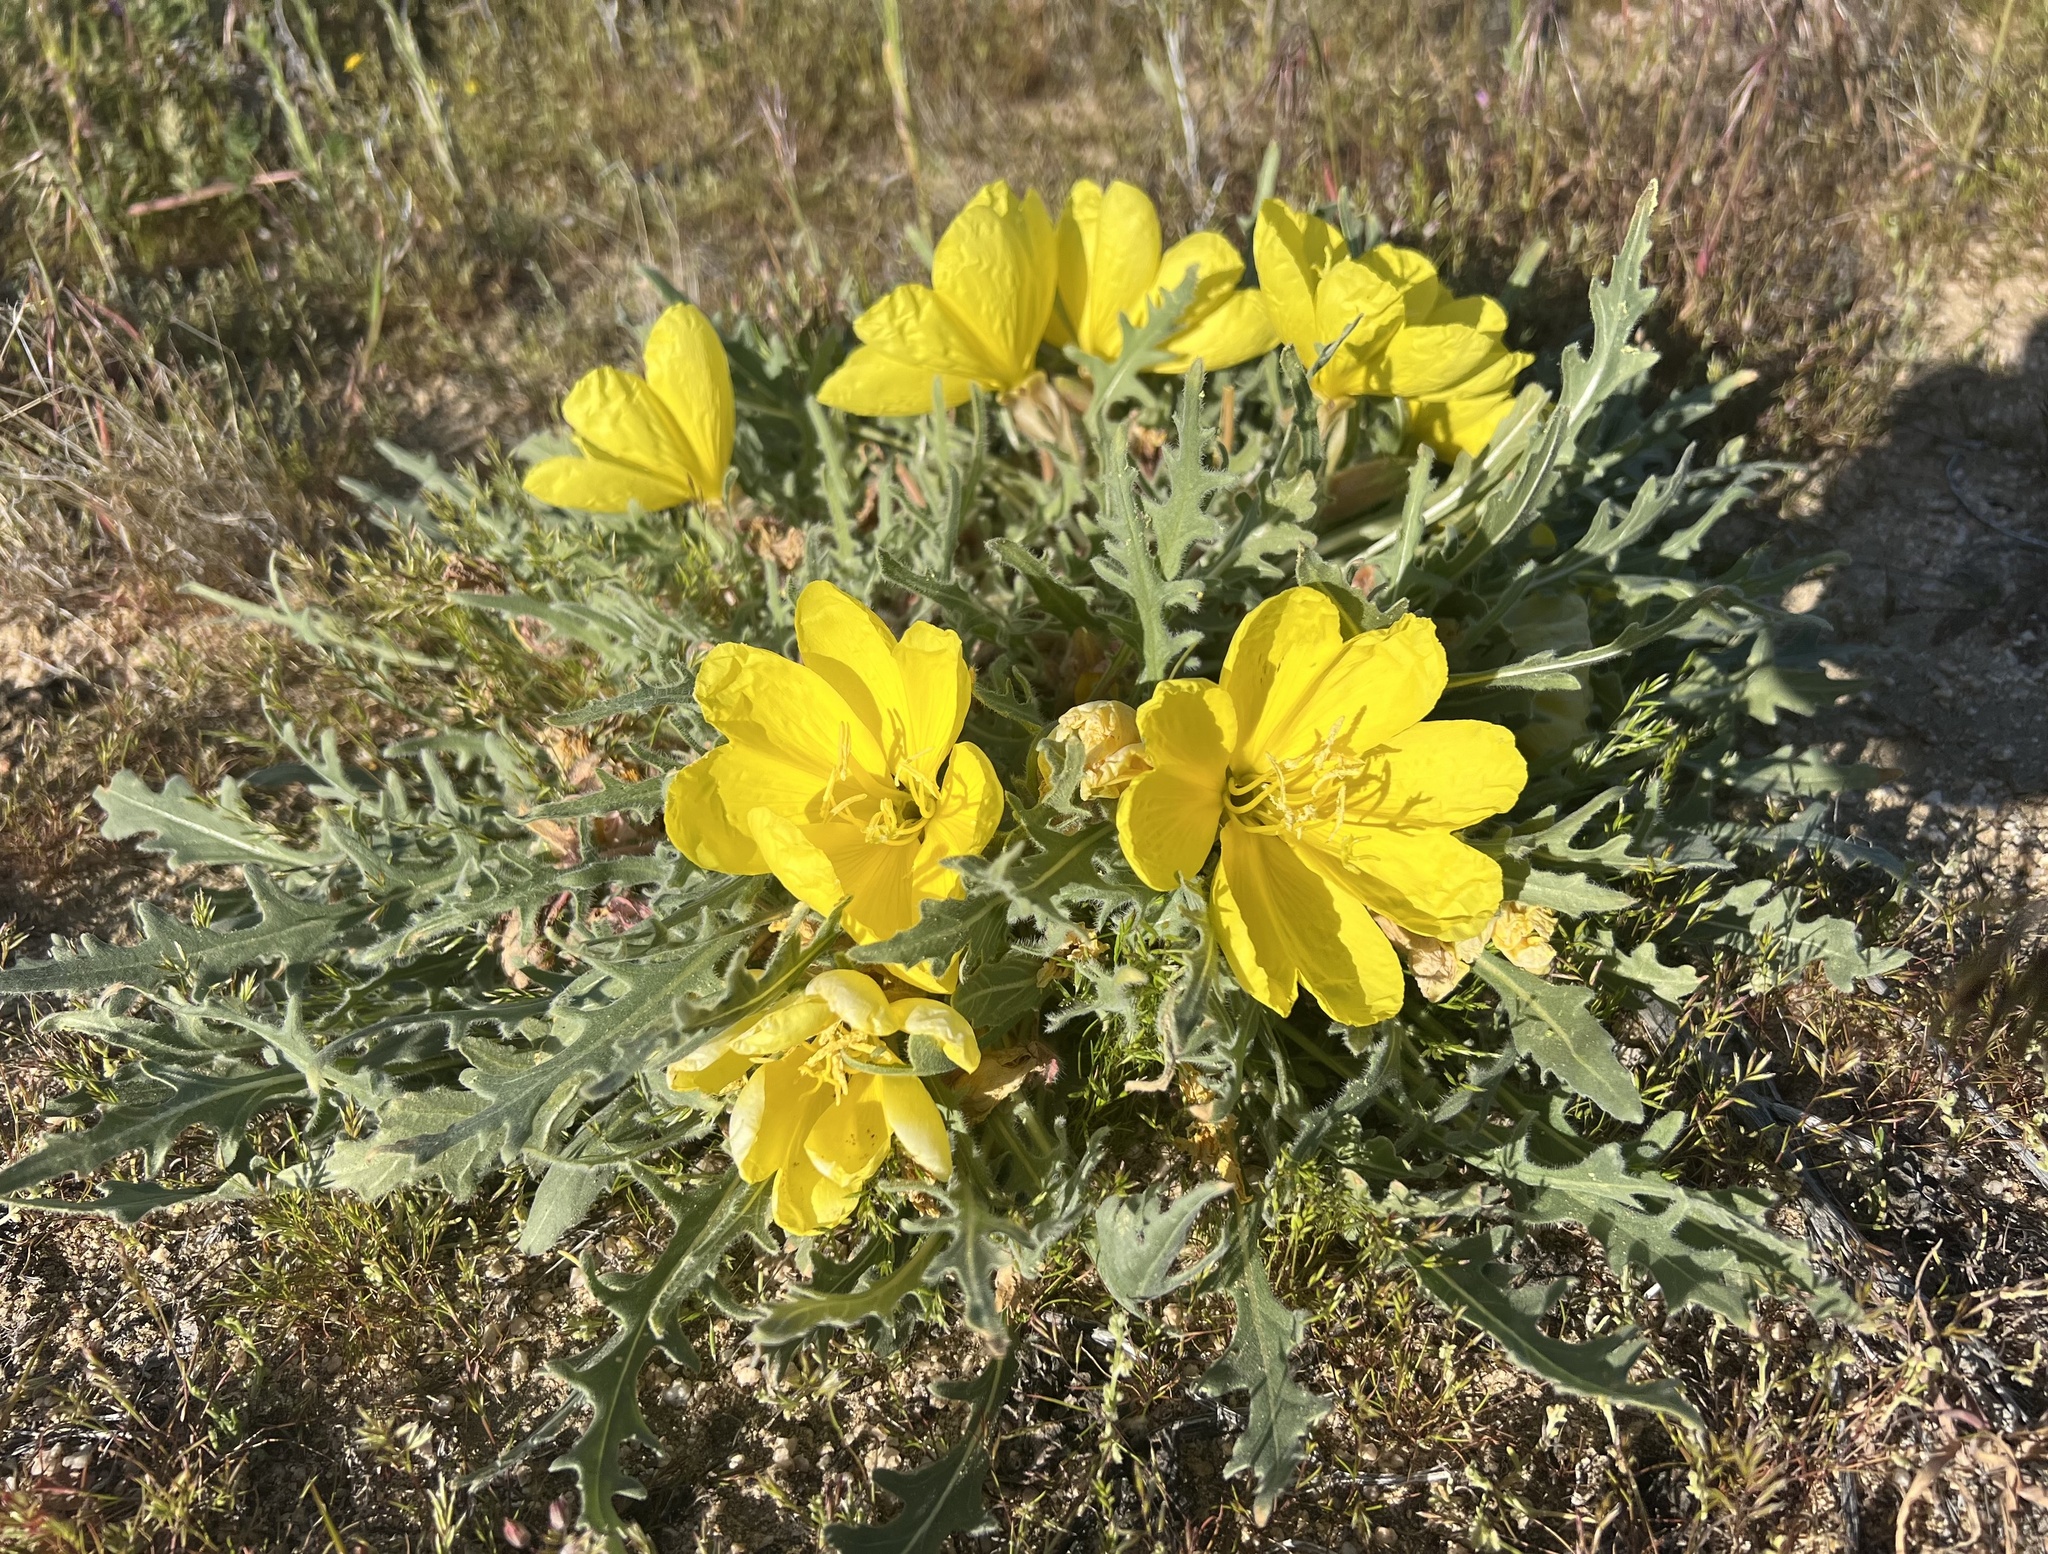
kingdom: Plantae
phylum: Tracheophyta
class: Magnoliopsida
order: Myrtales
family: Onagraceae
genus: Oenothera
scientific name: Oenothera primiveris
